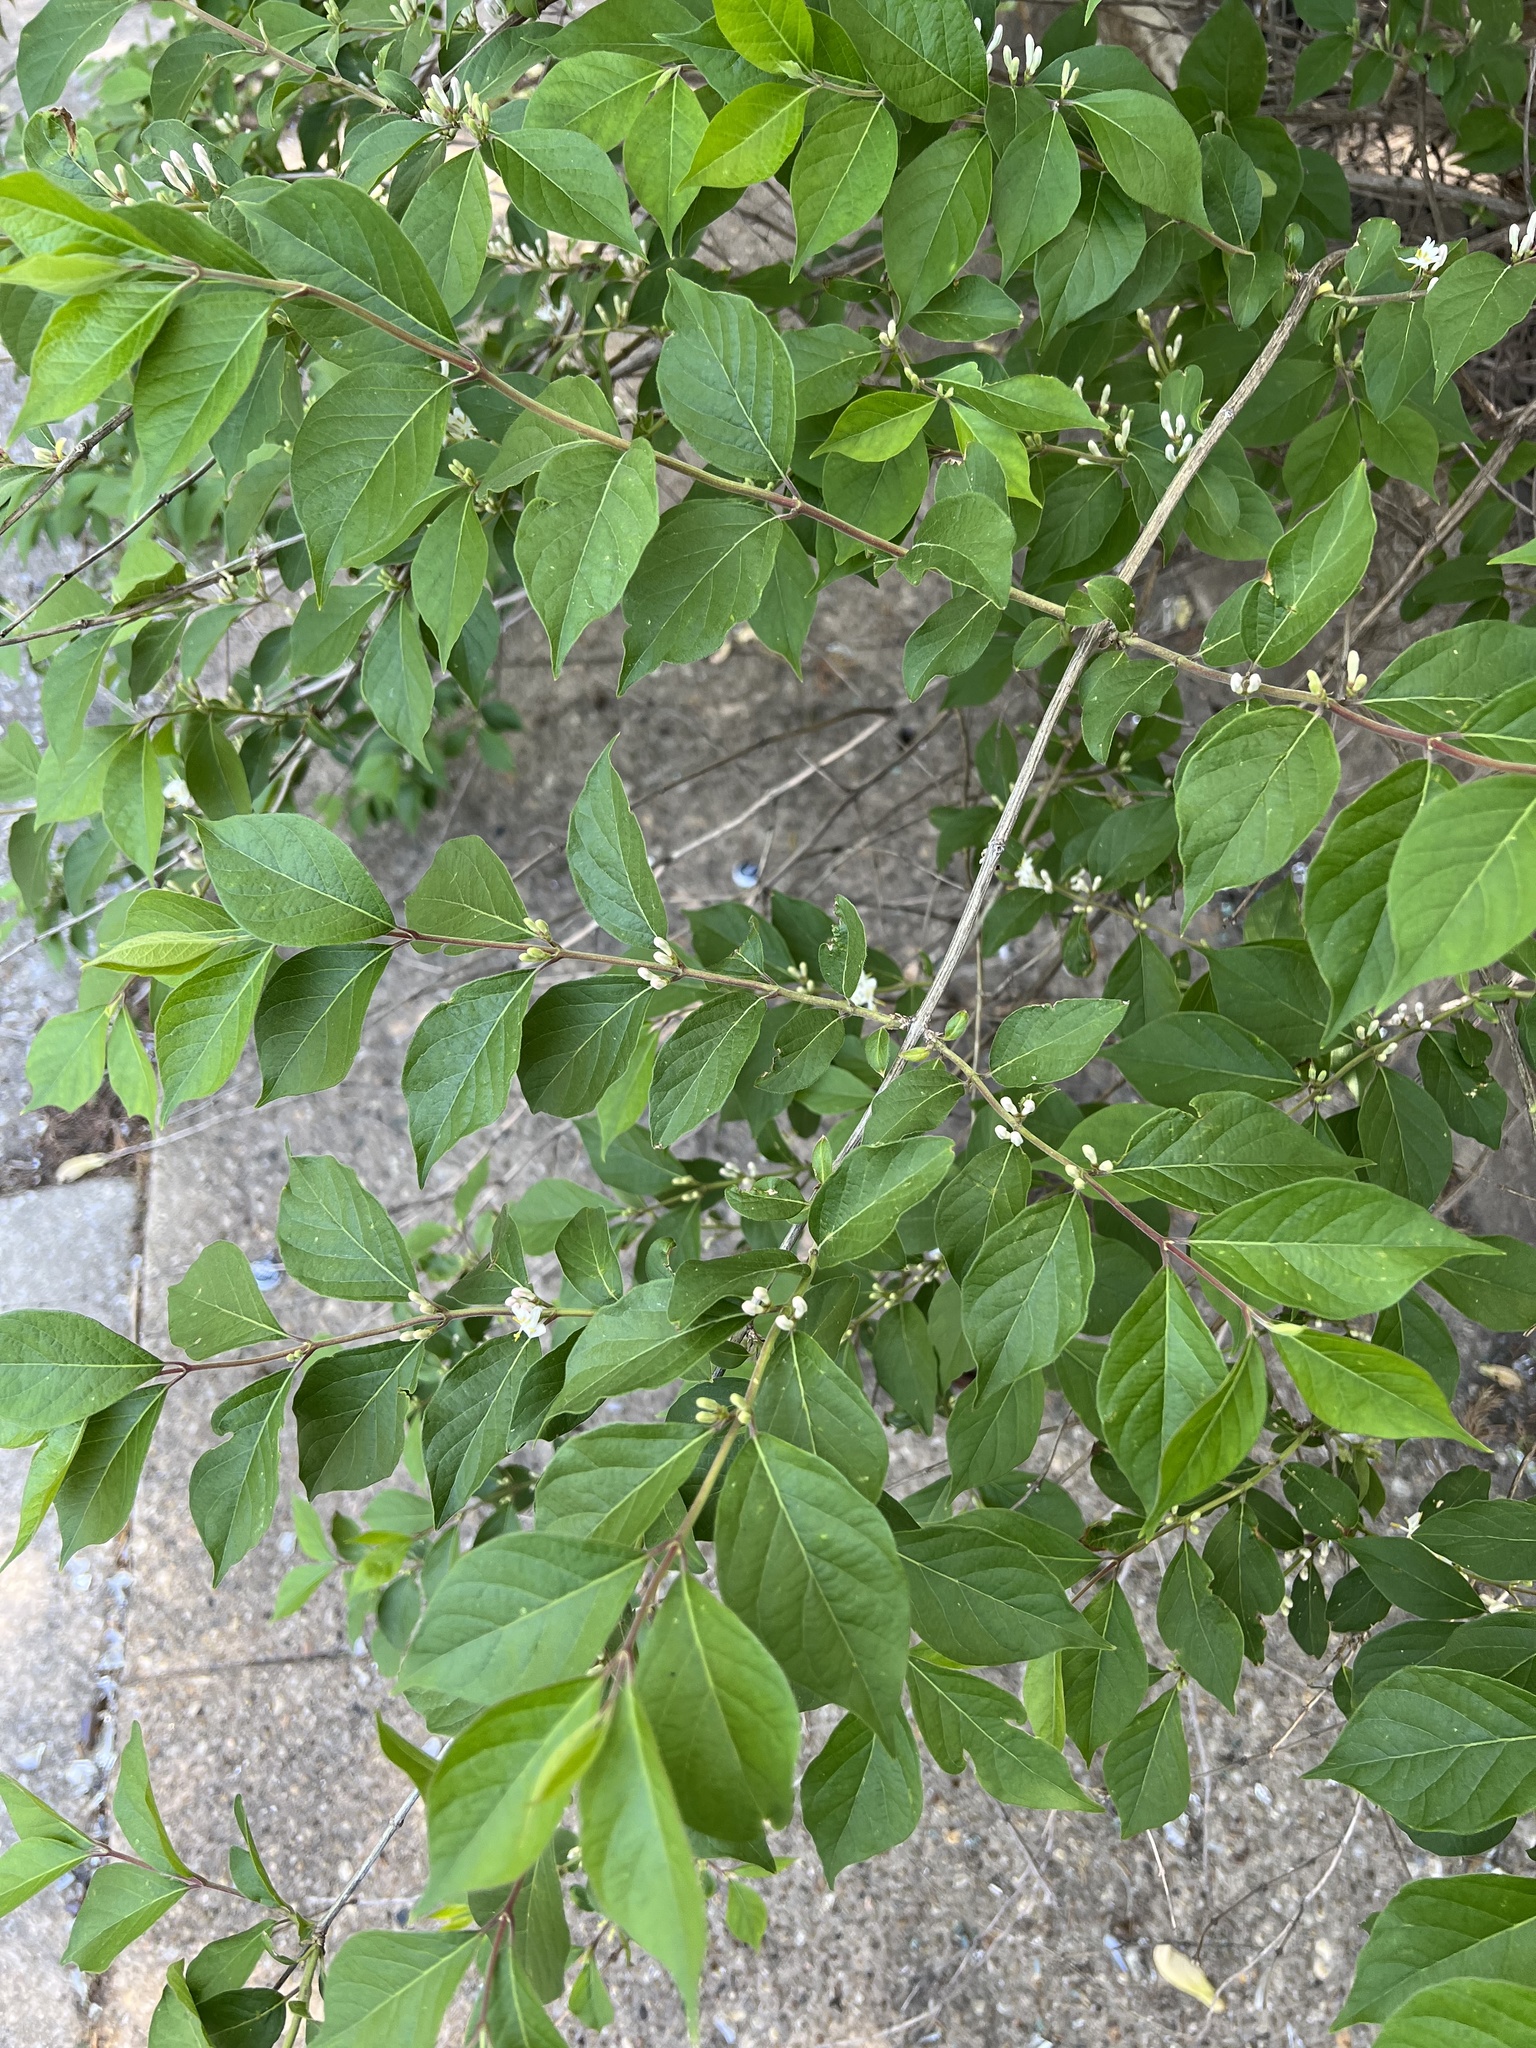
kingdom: Plantae
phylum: Tracheophyta
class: Magnoliopsida
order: Dipsacales
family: Caprifoliaceae
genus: Lonicera
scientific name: Lonicera maackii
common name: Amur honeysuckle
